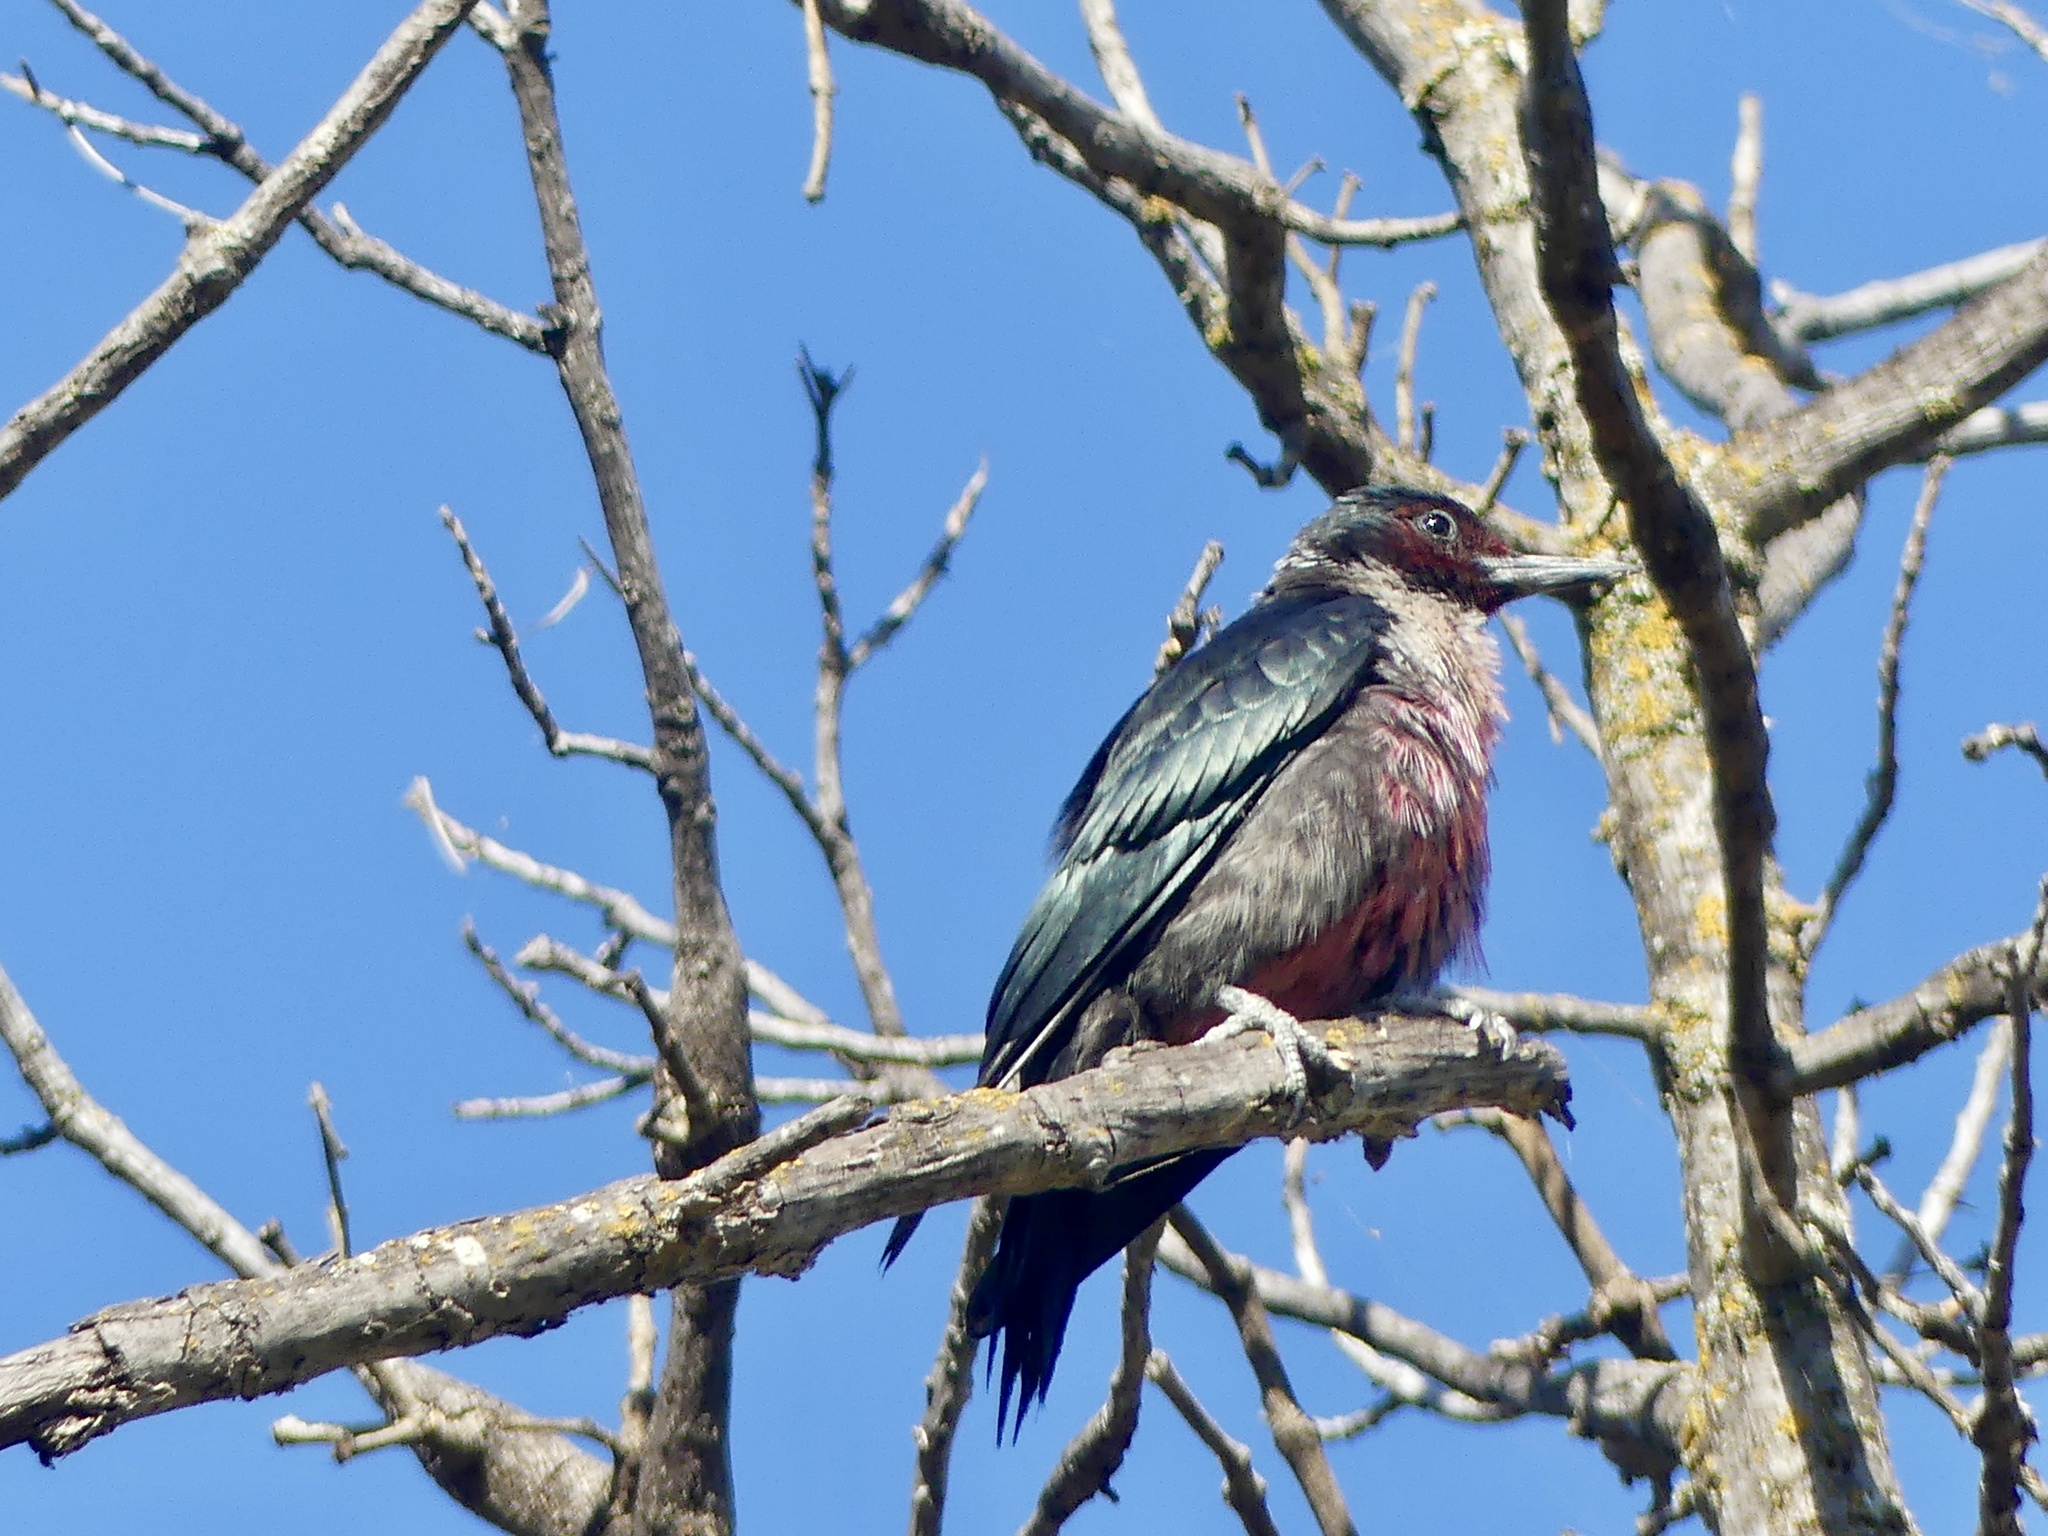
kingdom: Animalia
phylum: Chordata
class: Aves
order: Piciformes
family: Picidae
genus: Melanerpes
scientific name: Melanerpes lewis
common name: Lewis's woodpecker
